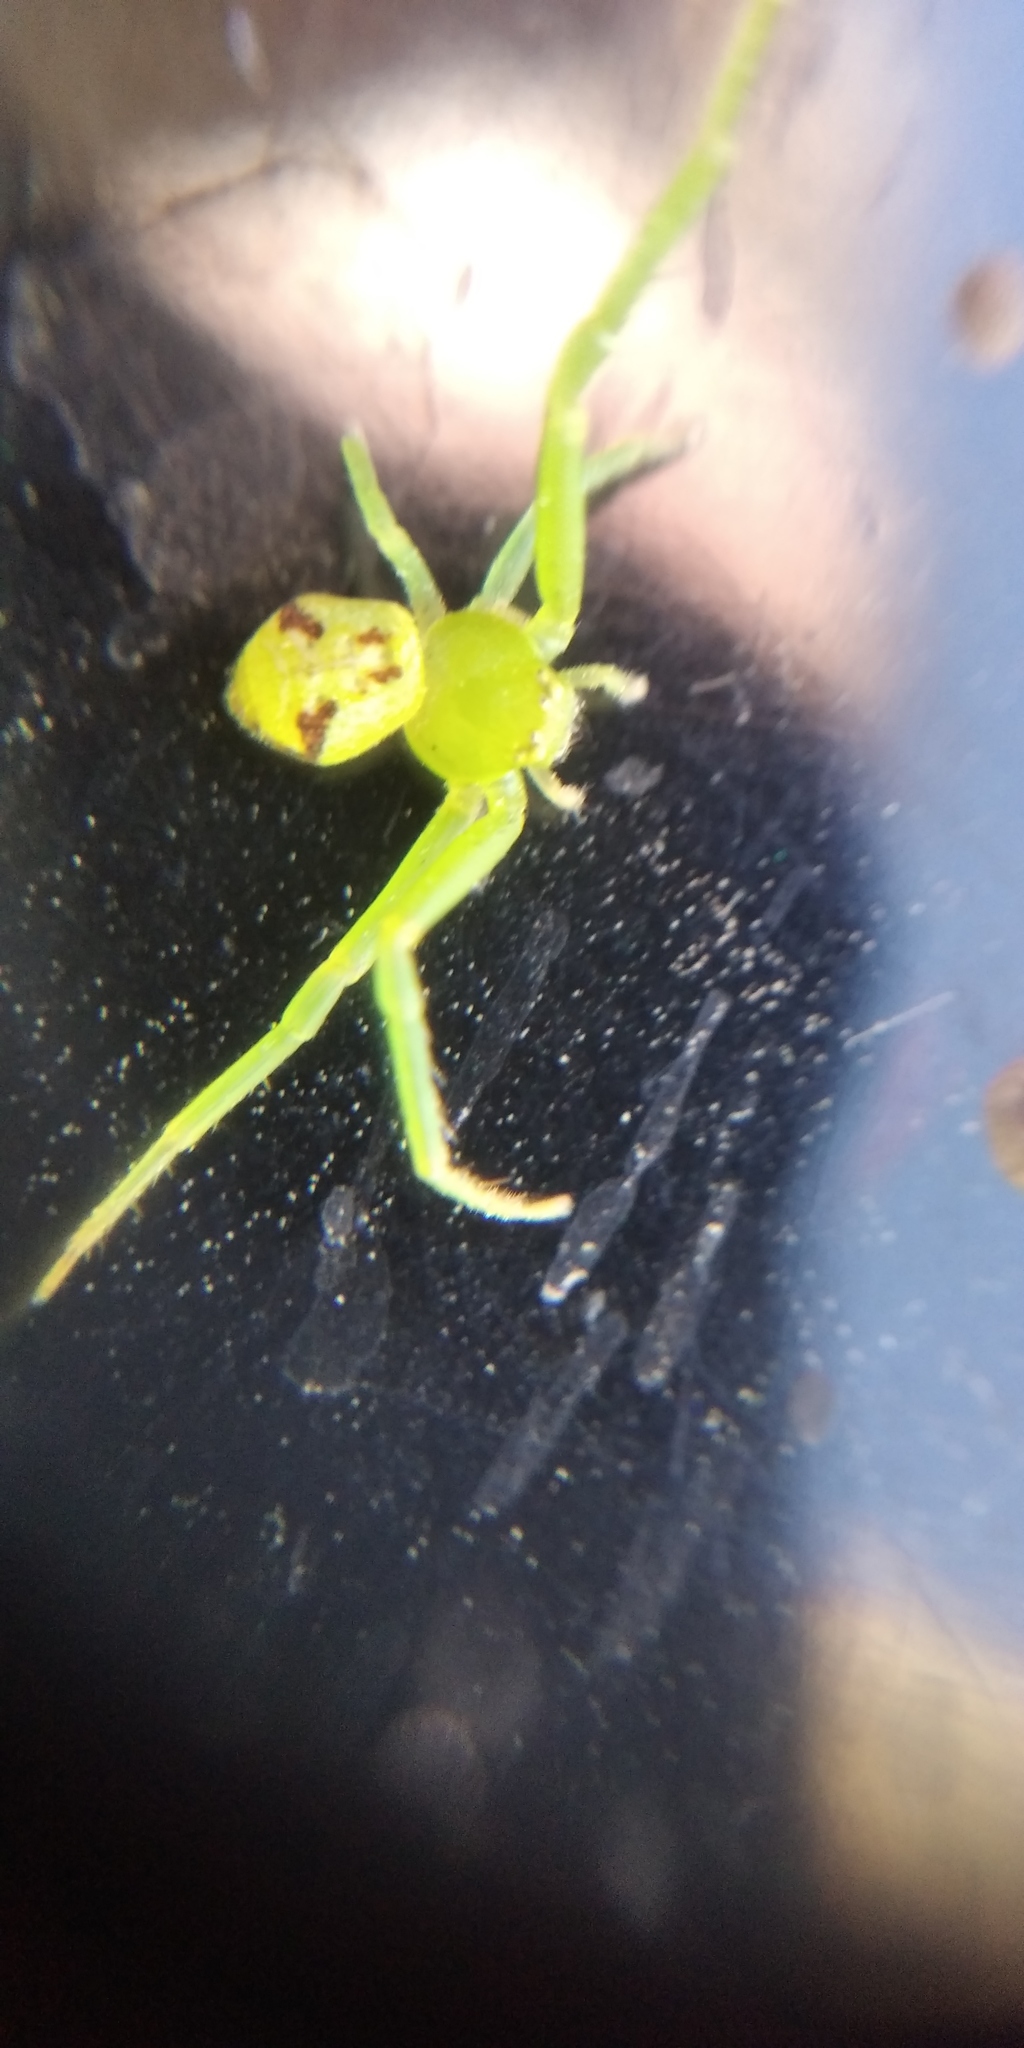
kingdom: Animalia
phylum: Arthropoda
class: Arachnida
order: Araneae
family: Thomisidae
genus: Ebrechtella
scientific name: Ebrechtella tricuspidata
